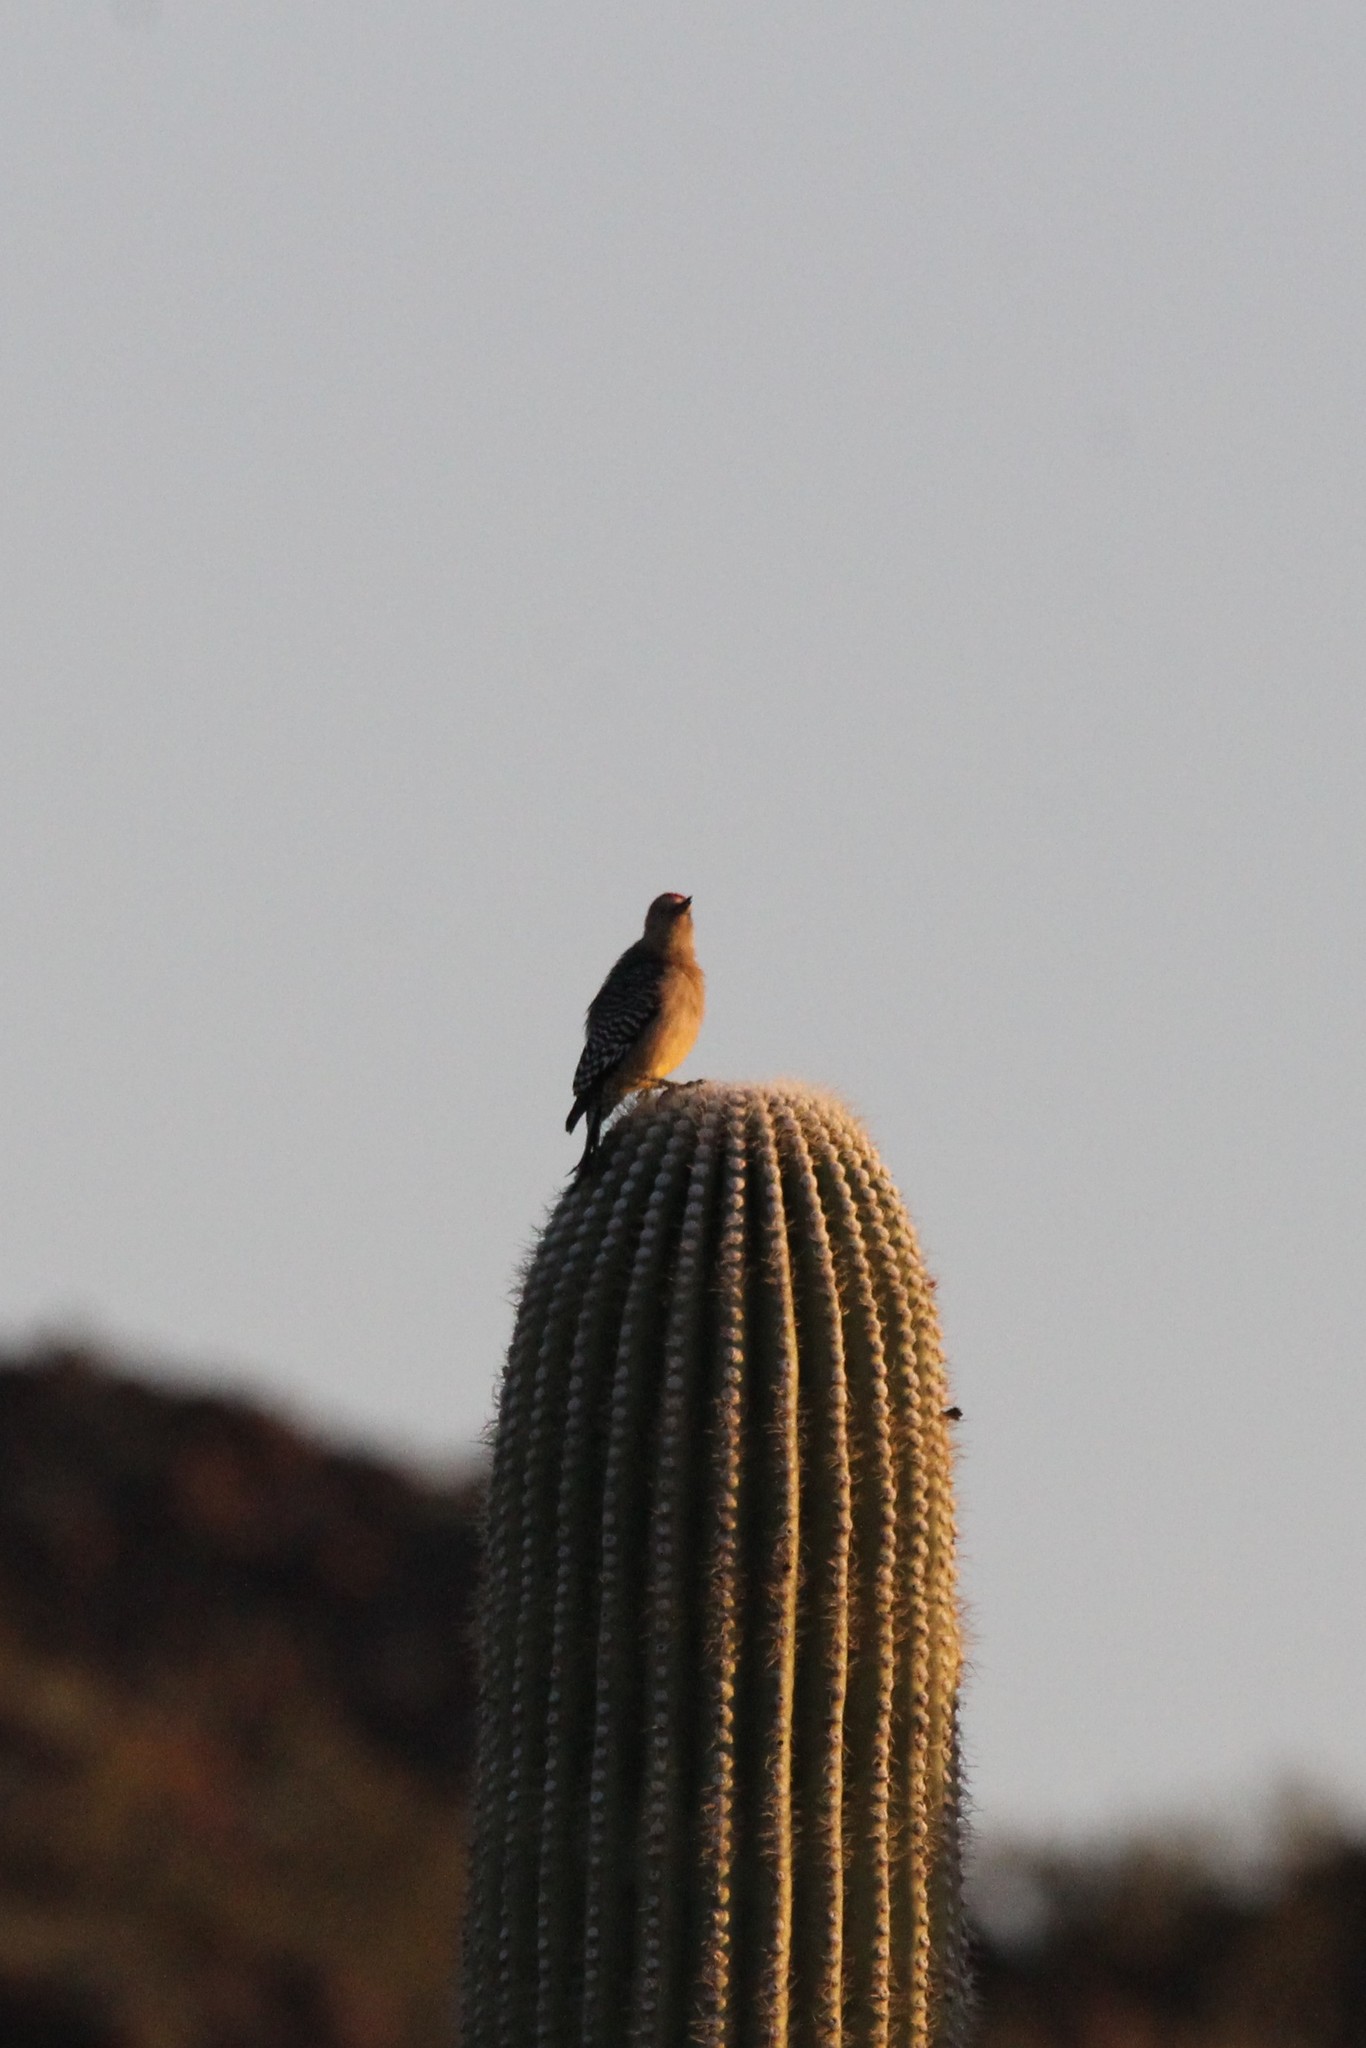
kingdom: Animalia
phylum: Chordata
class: Aves
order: Piciformes
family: Picidae
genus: Melanerpes
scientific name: Melanerpes uropygialis
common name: Gila woodpecker
